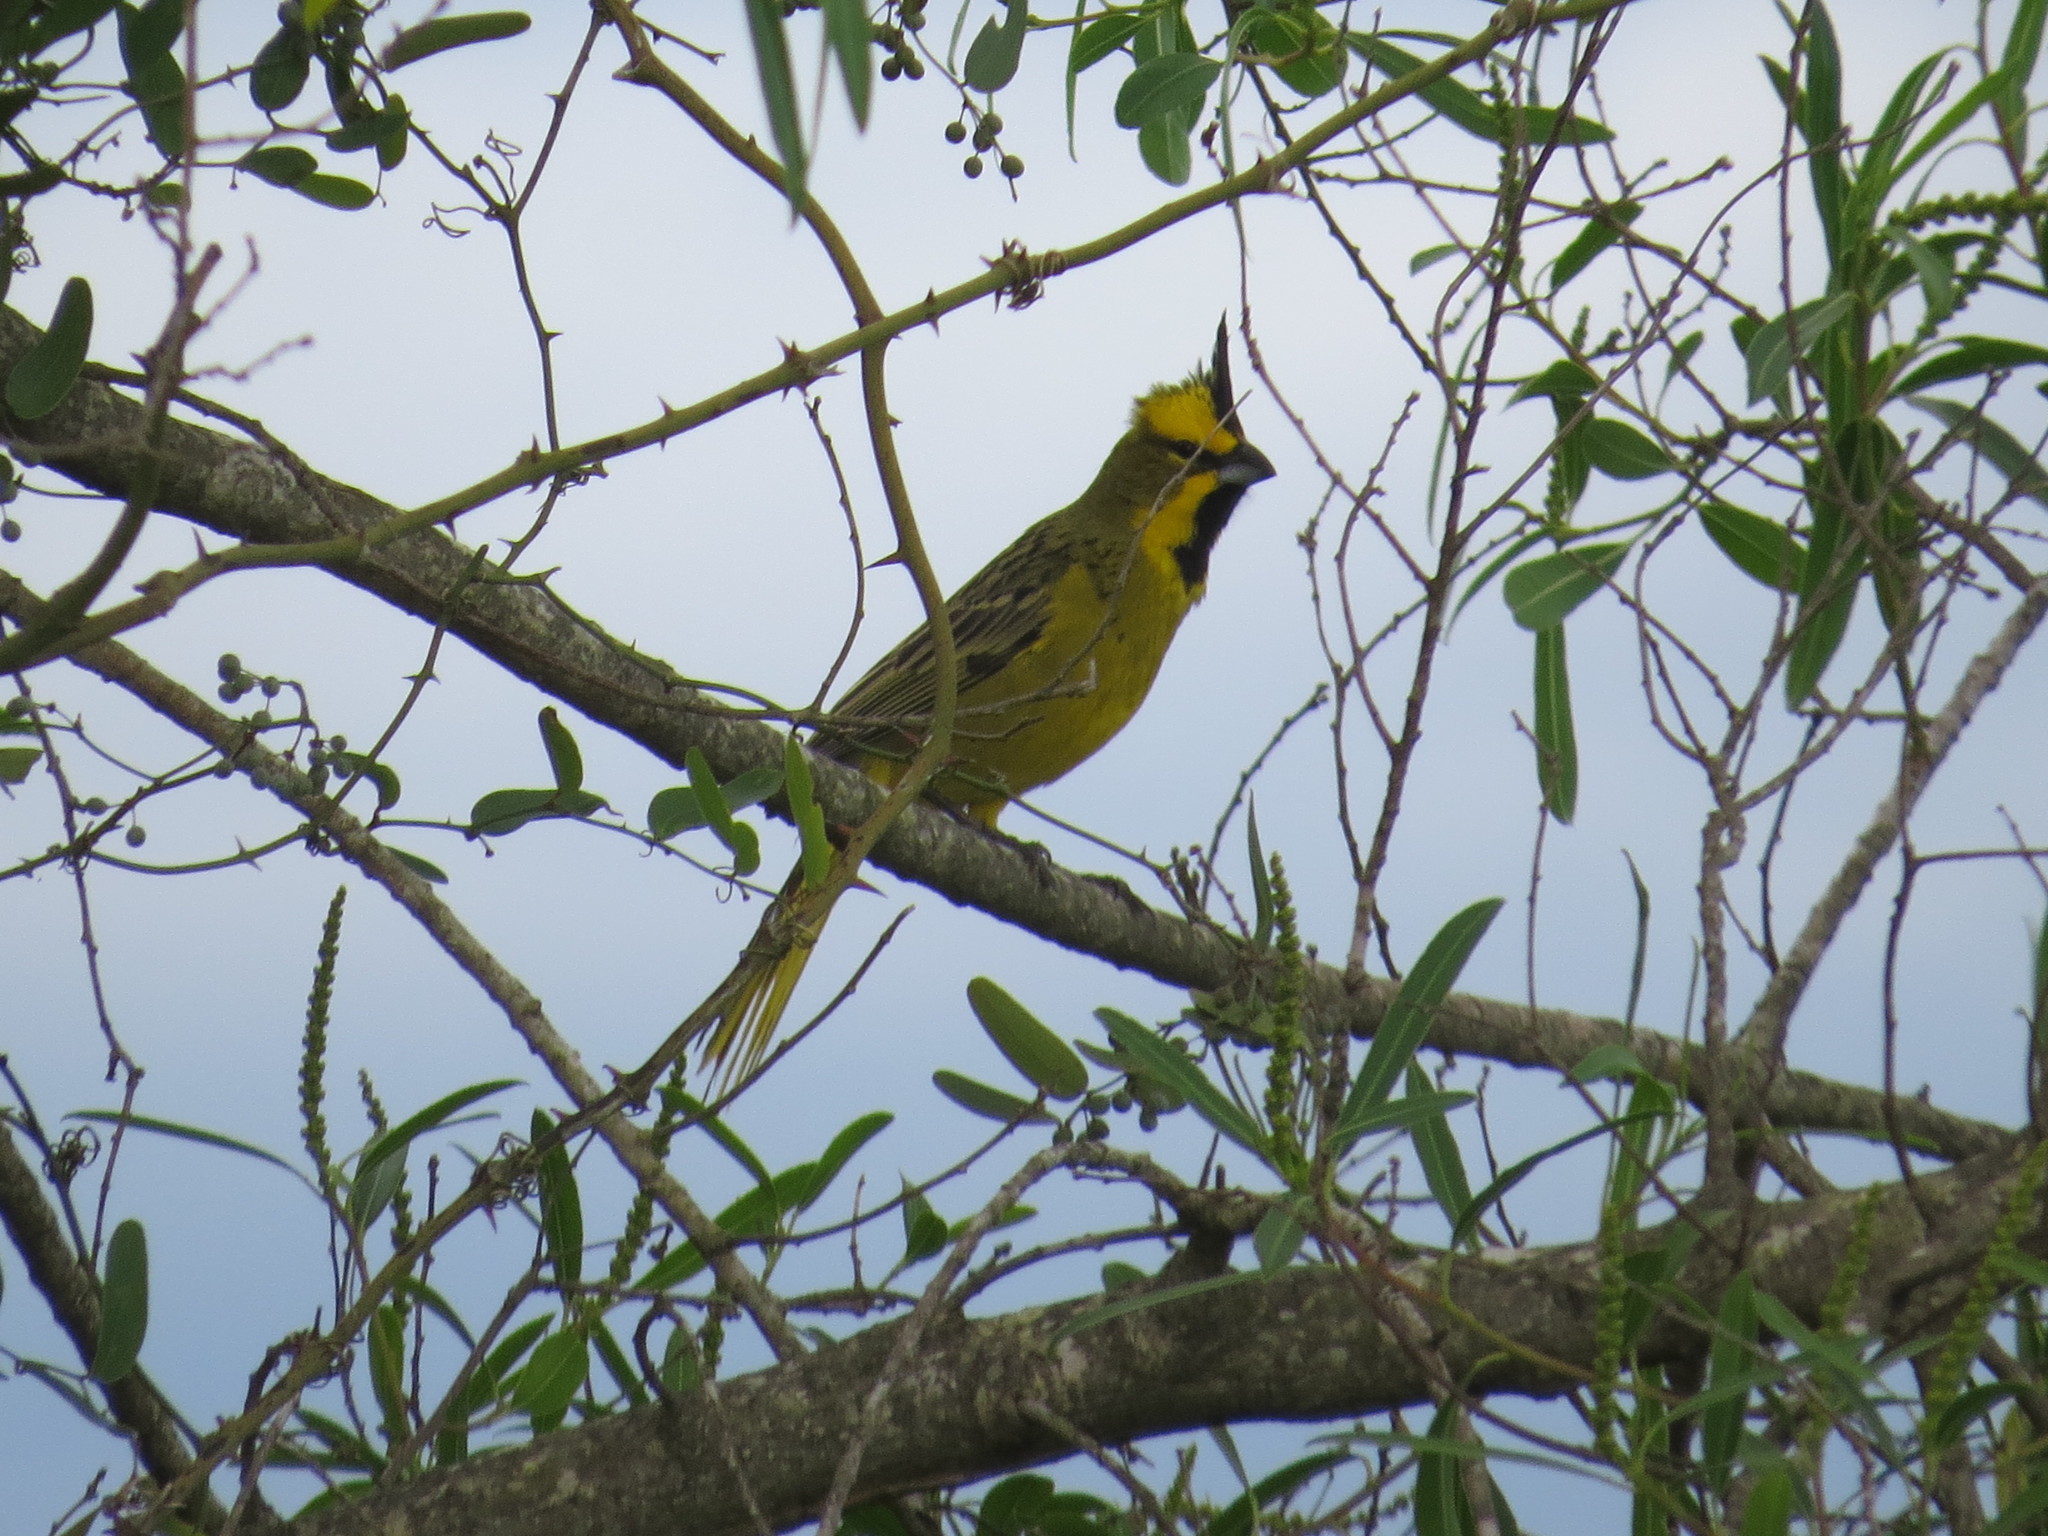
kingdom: Animalia
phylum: Chordata
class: Aves
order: Passeriformes
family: Thraupidae
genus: Gubernatrix
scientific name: Gubernatrix cristata
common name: Yellow cardinal
